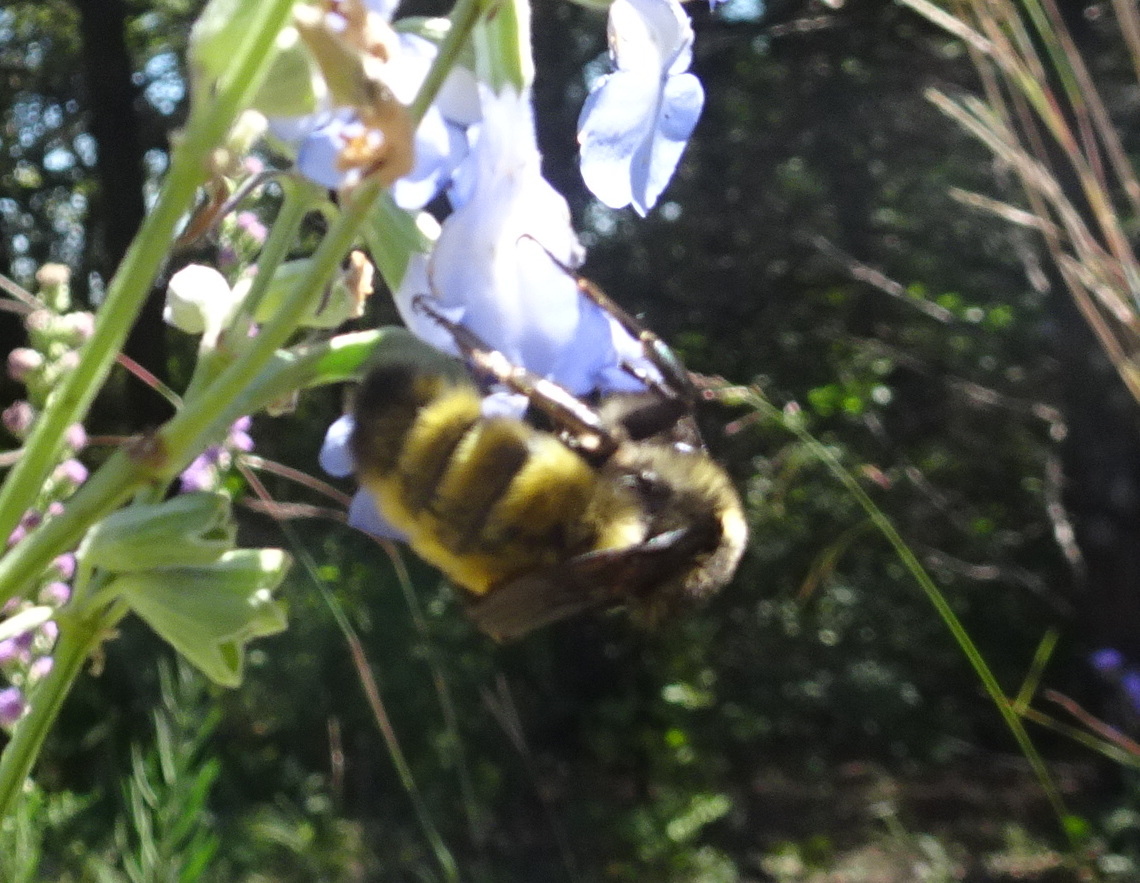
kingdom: Animalia
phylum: Arthropoda
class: Insecta
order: Hymenoptera
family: Apidae
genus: Bombus
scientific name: Bombus pensylvanicus
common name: Bumble bee
